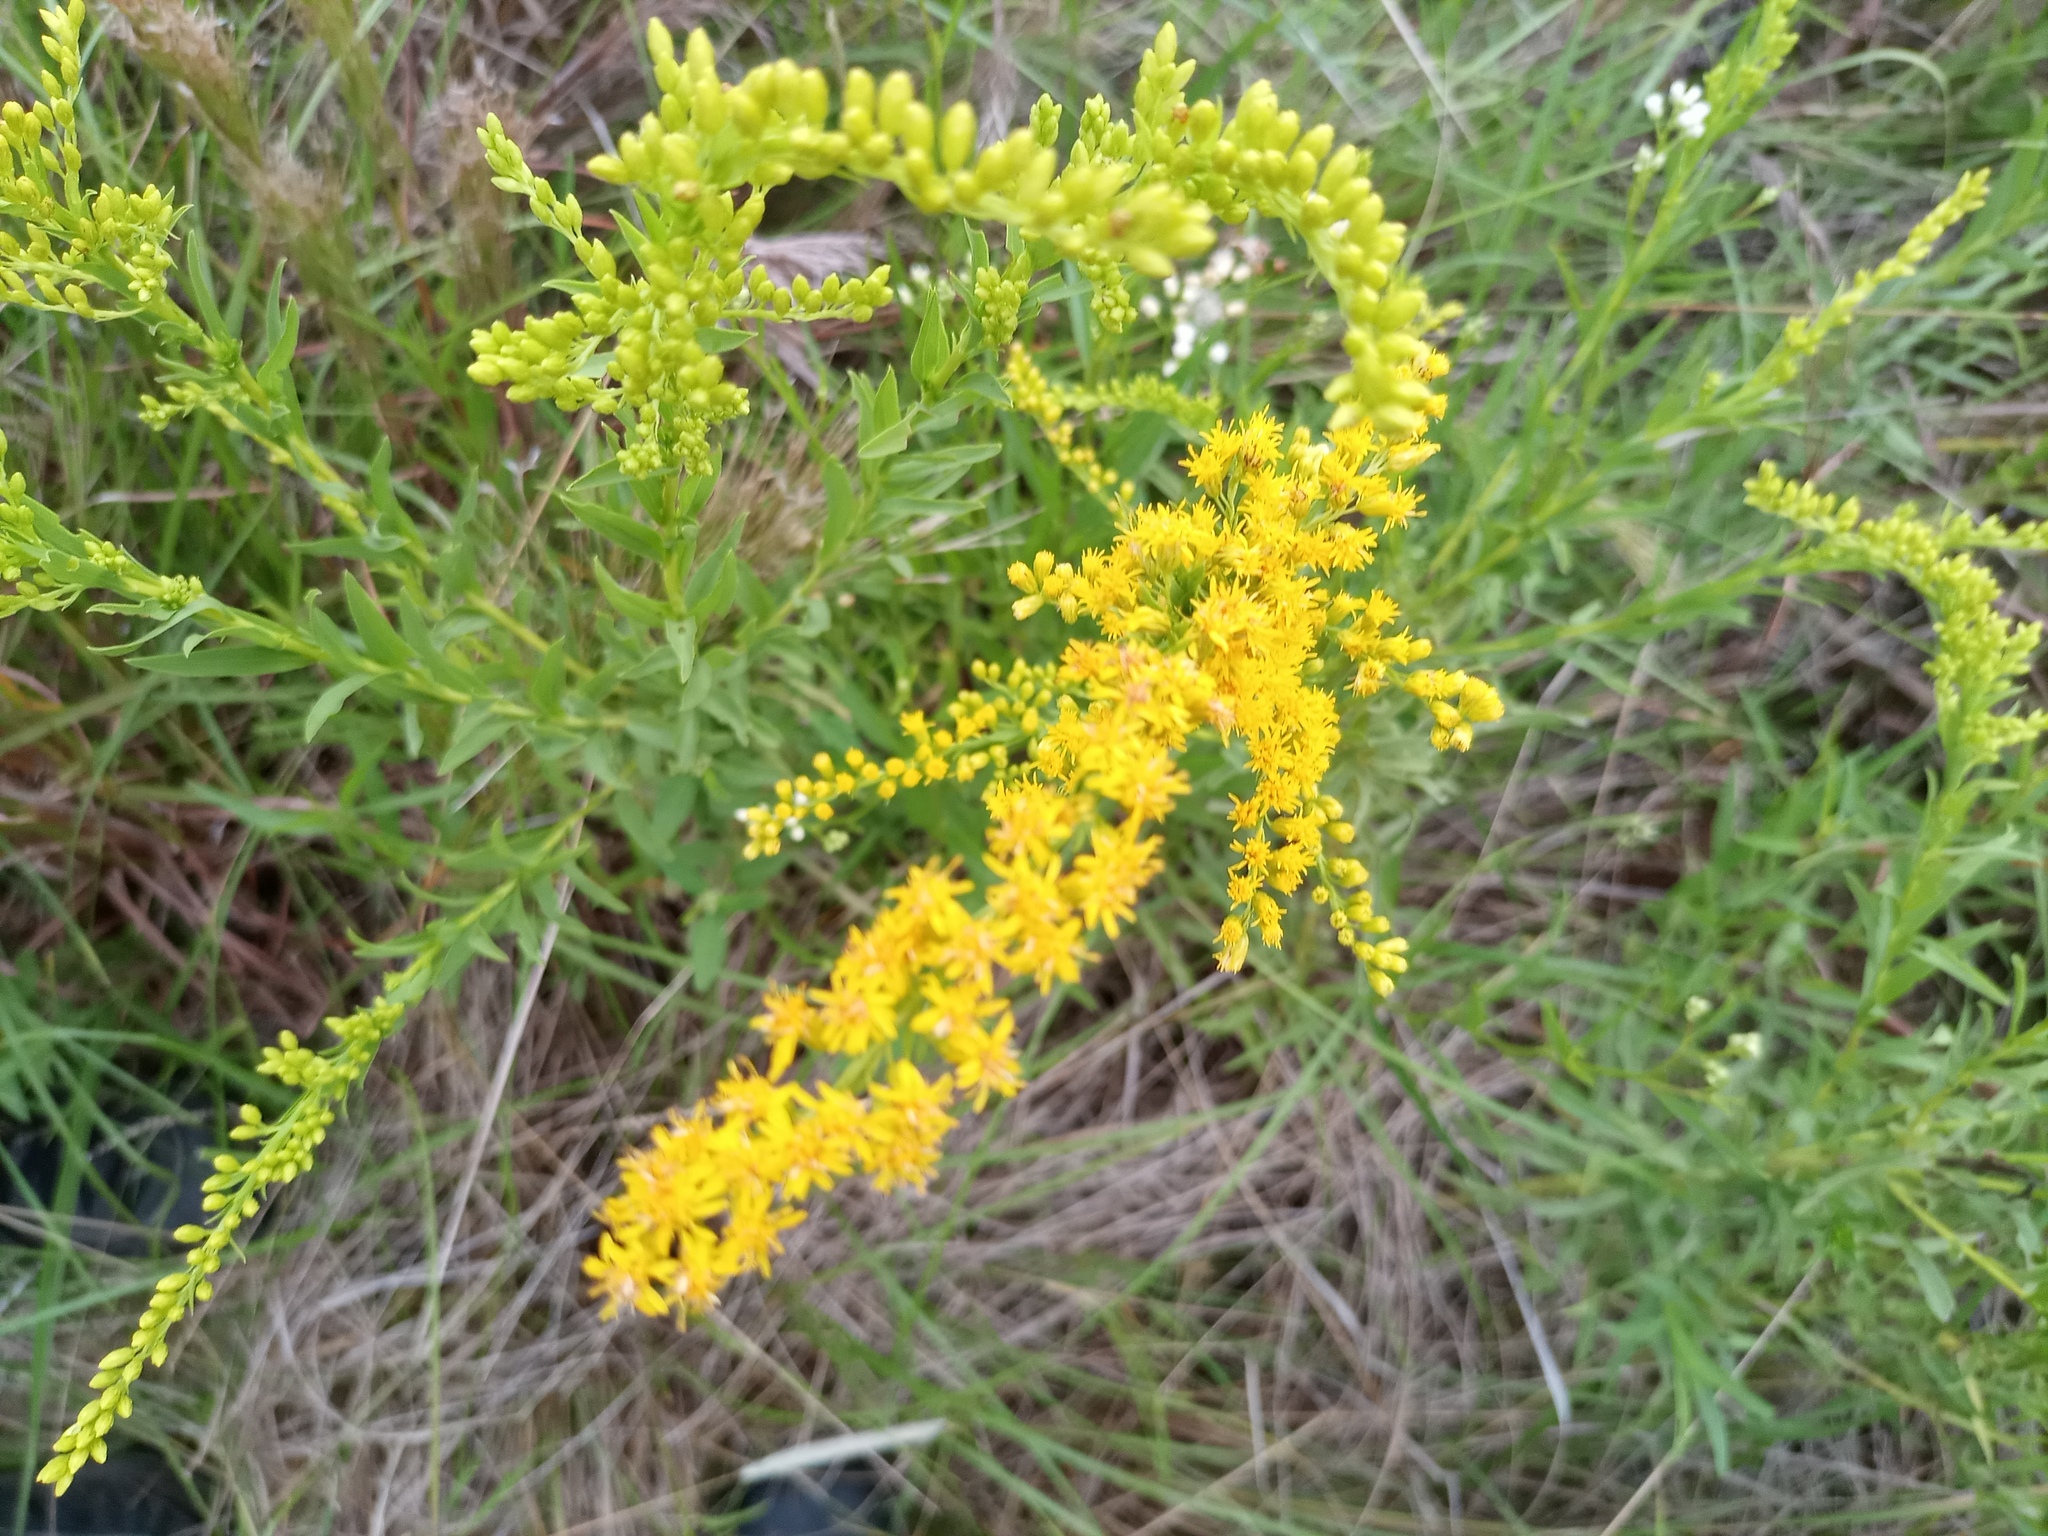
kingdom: Plantae
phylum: Tracheophyta
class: Magnoliopsida
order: Asterales
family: Asteraceae
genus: Solidago
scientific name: Solidago chilensis
